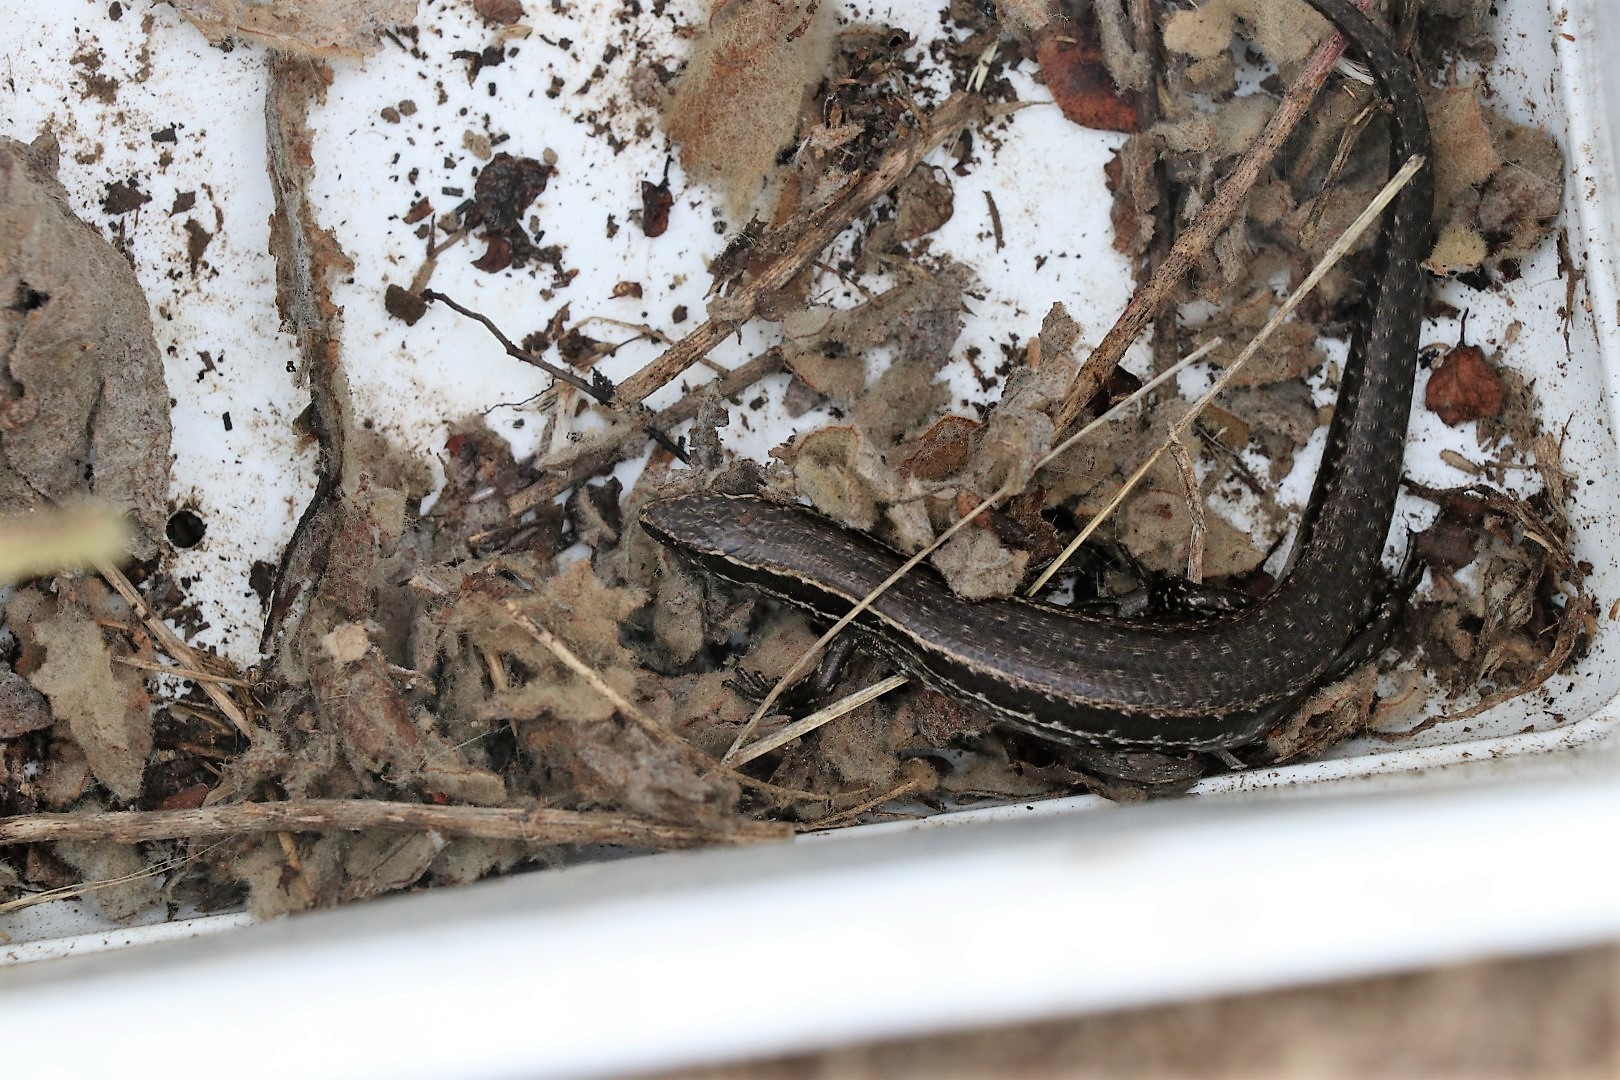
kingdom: Animalia
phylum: Chordata
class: Squamata
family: Scincidae
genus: Oligosoma
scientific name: Oligosoma polychroma
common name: Common new zealand skink
